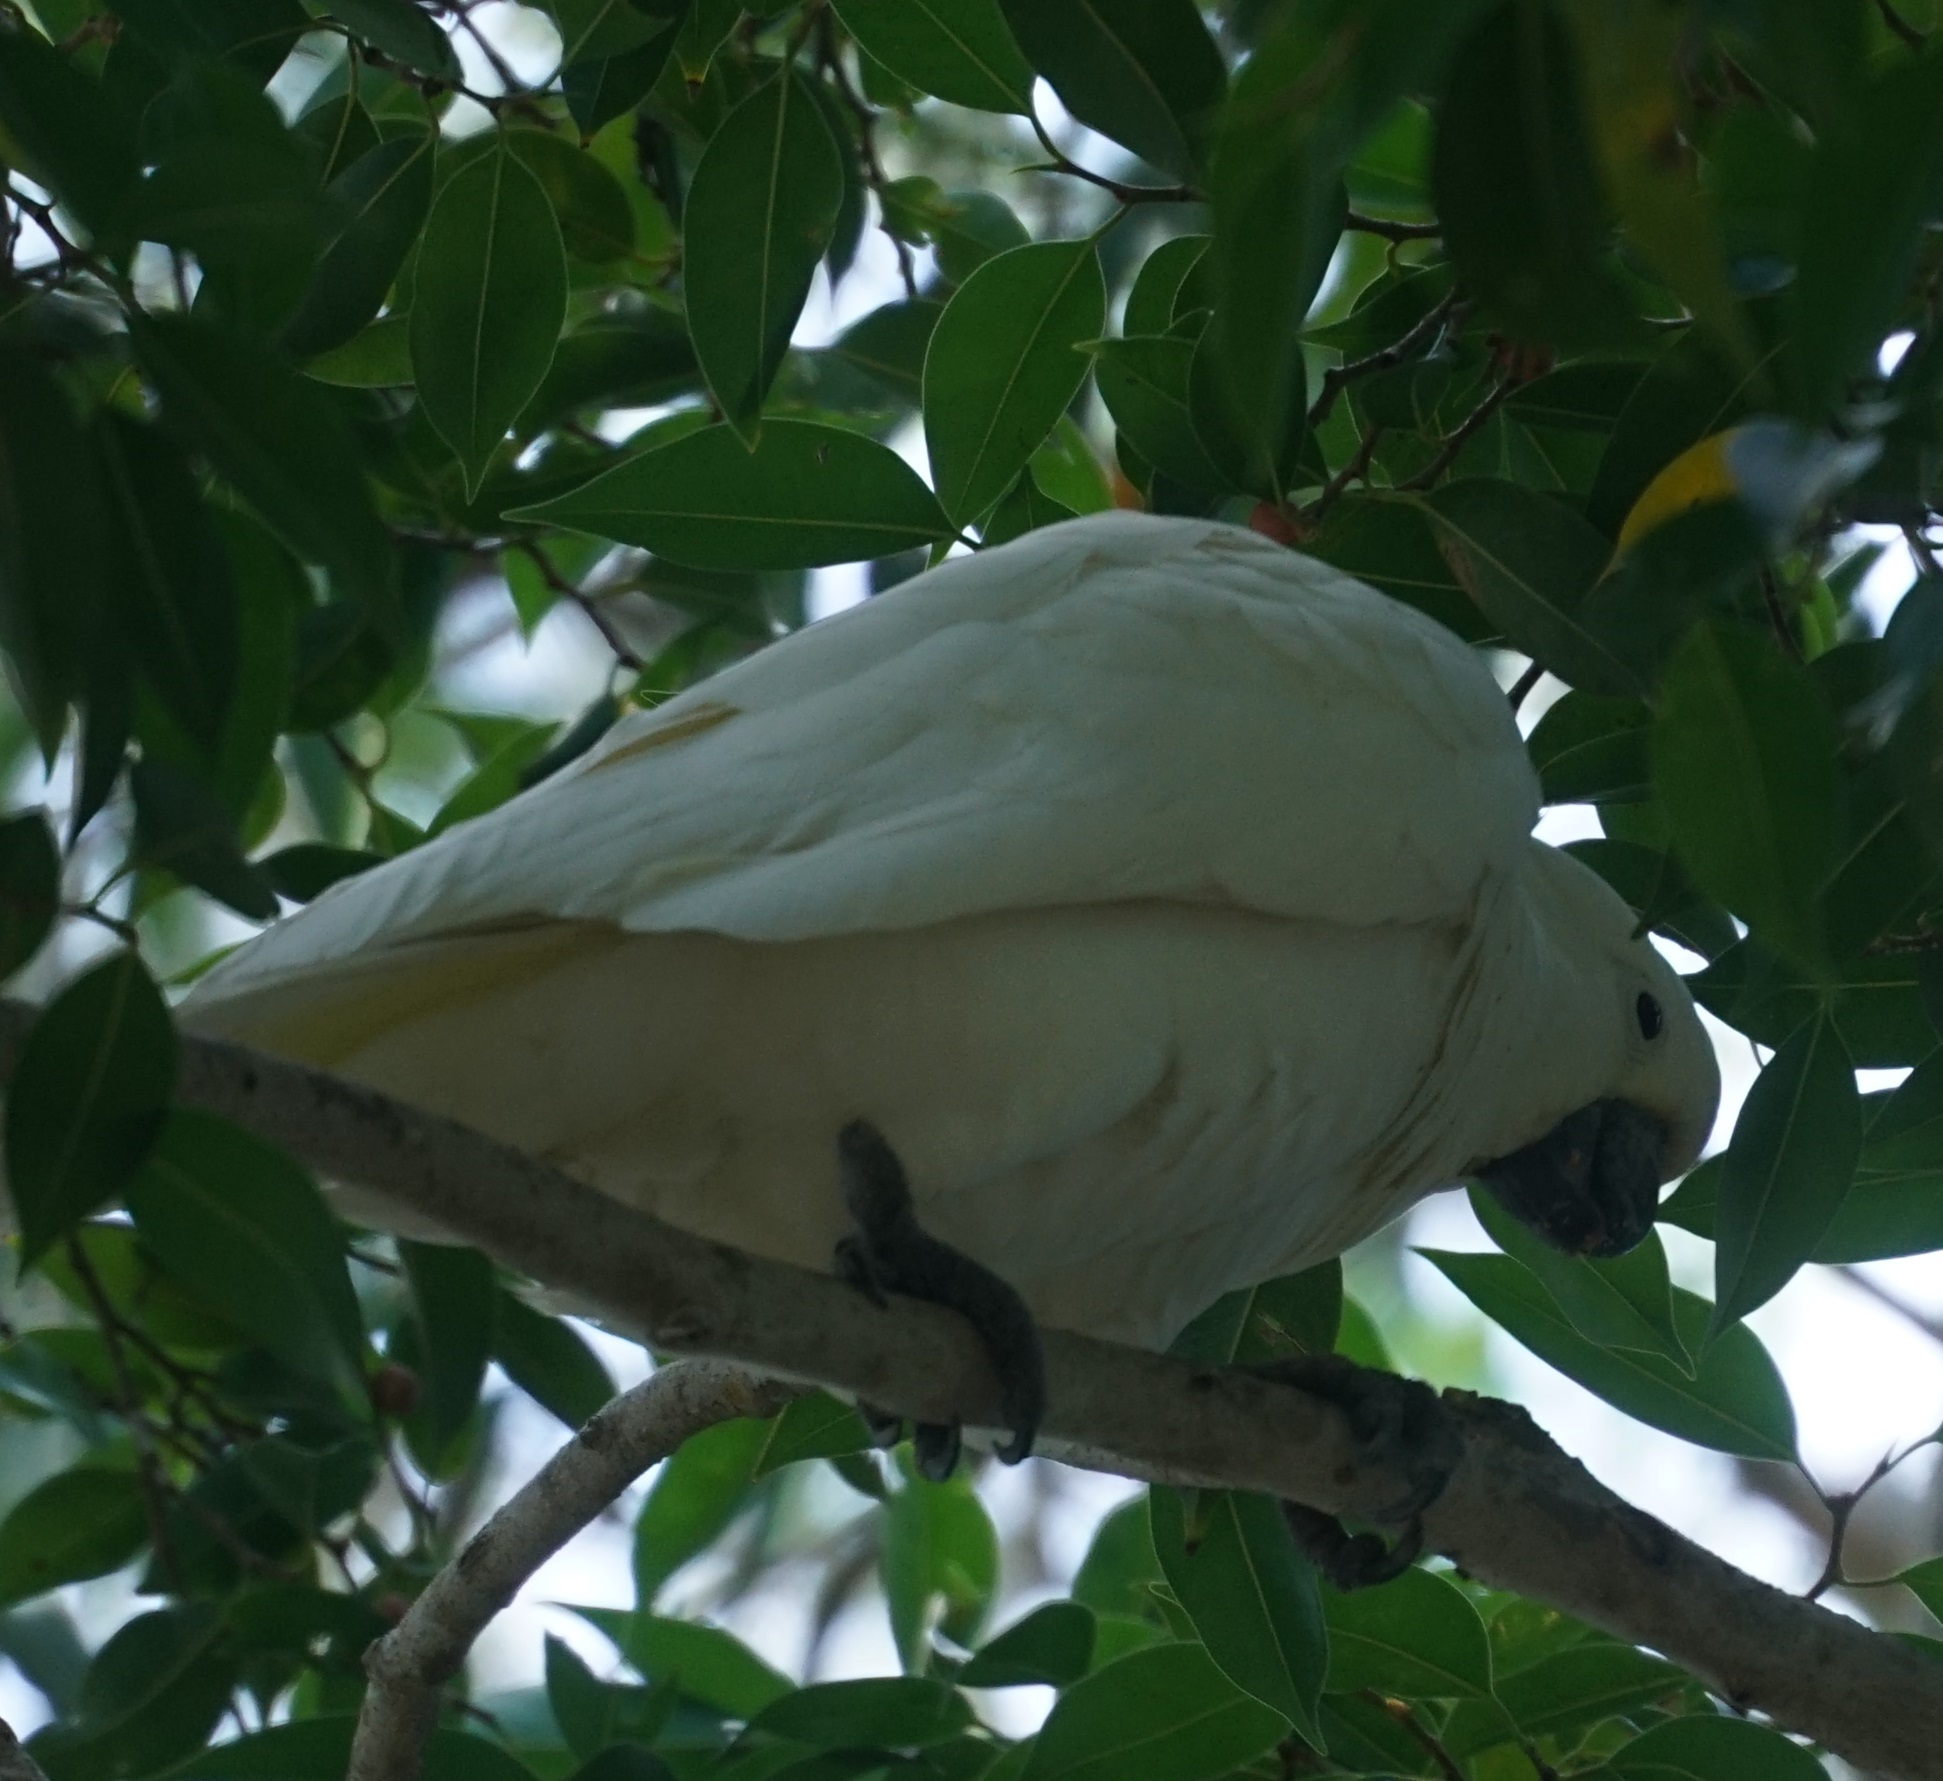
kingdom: Animalia
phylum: Chordata
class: Aves
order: Psittaciformes
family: Psittacidae
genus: Cacatua
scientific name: Cacatua galerita
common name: Sulphur-crested cockatoo
